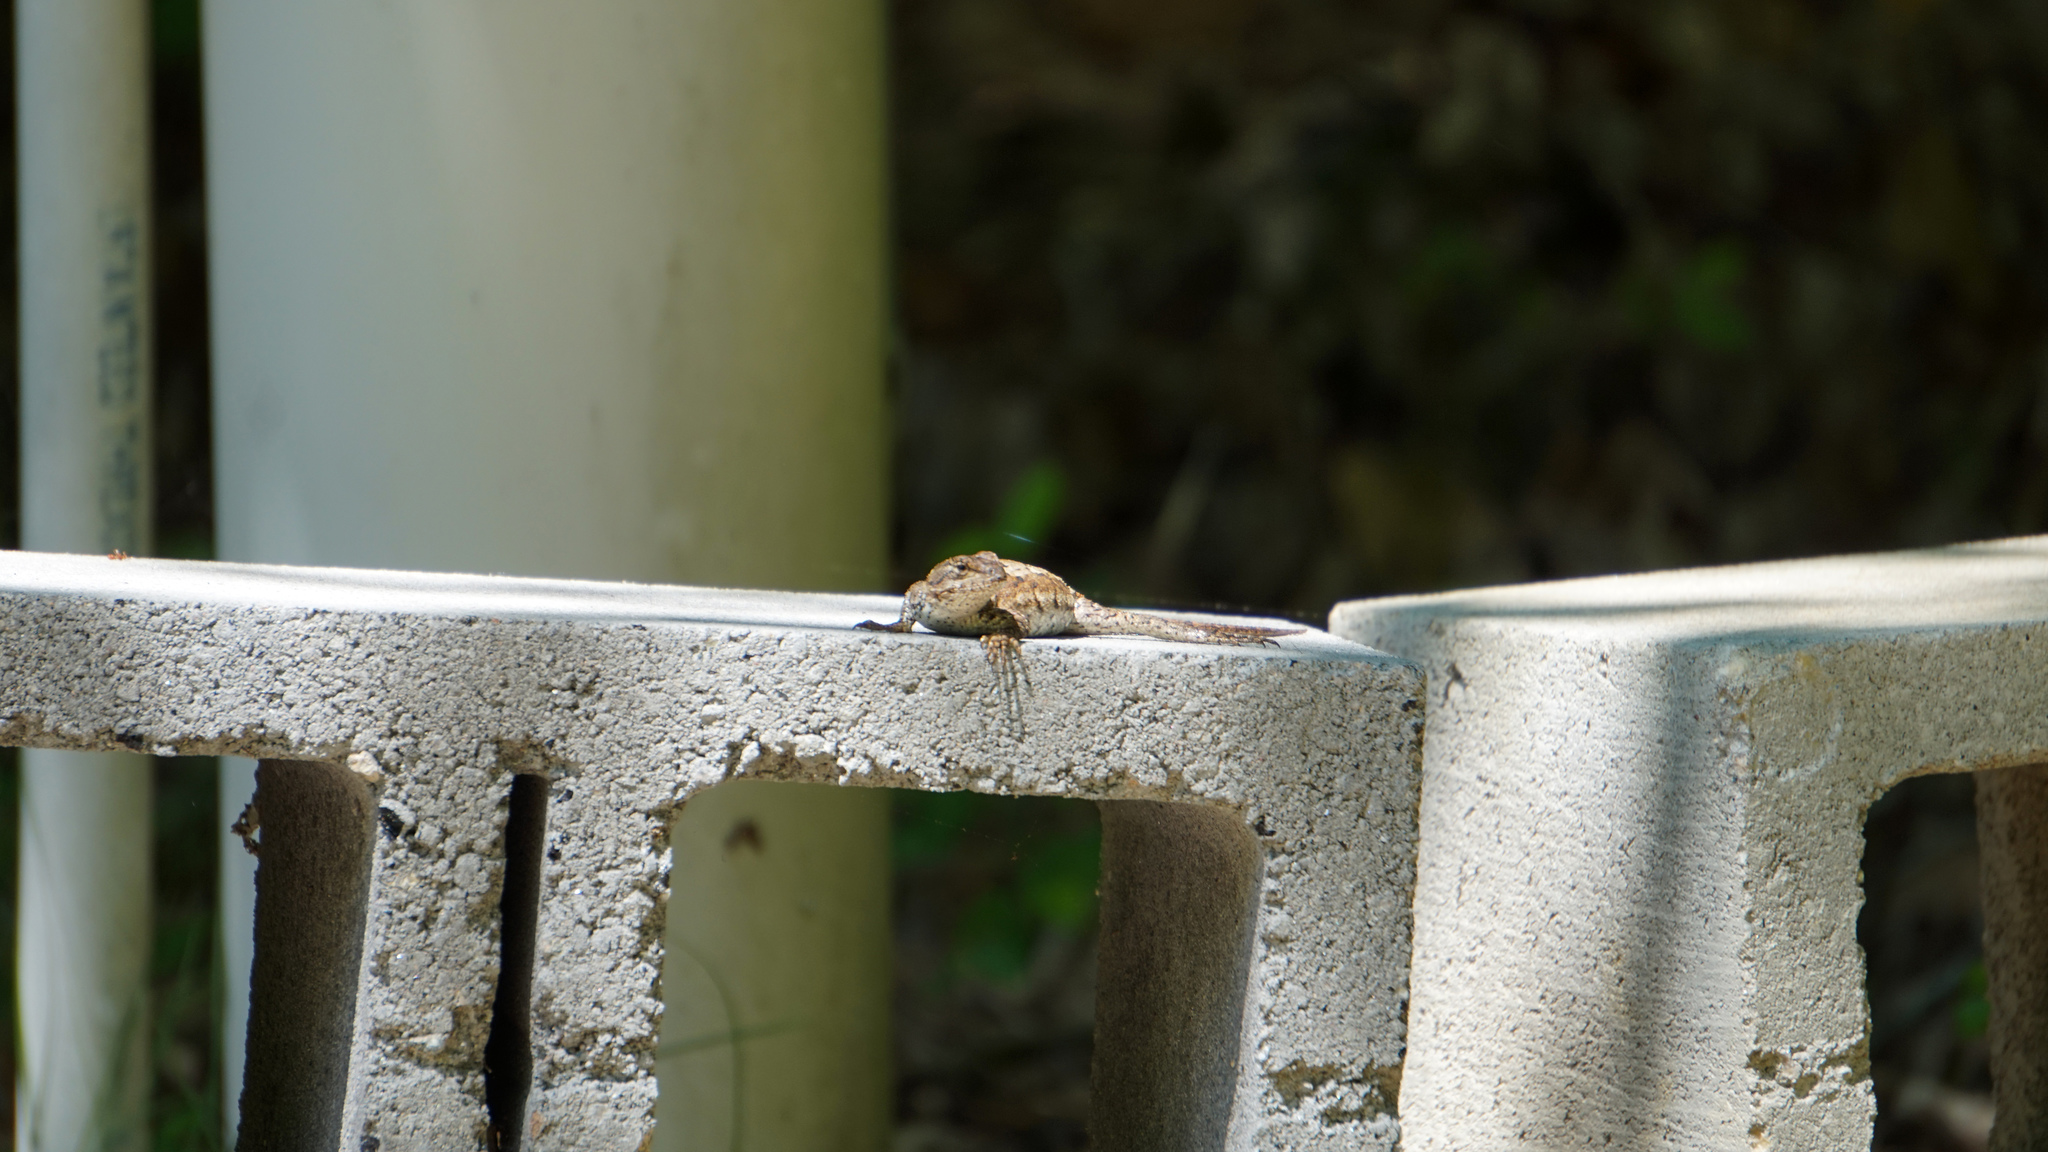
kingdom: Animalia
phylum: Chordata
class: Squamata
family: Phrynosomatidae
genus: Sceloporus
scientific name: Sceloporus undulatus
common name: Eastern fence lizard
